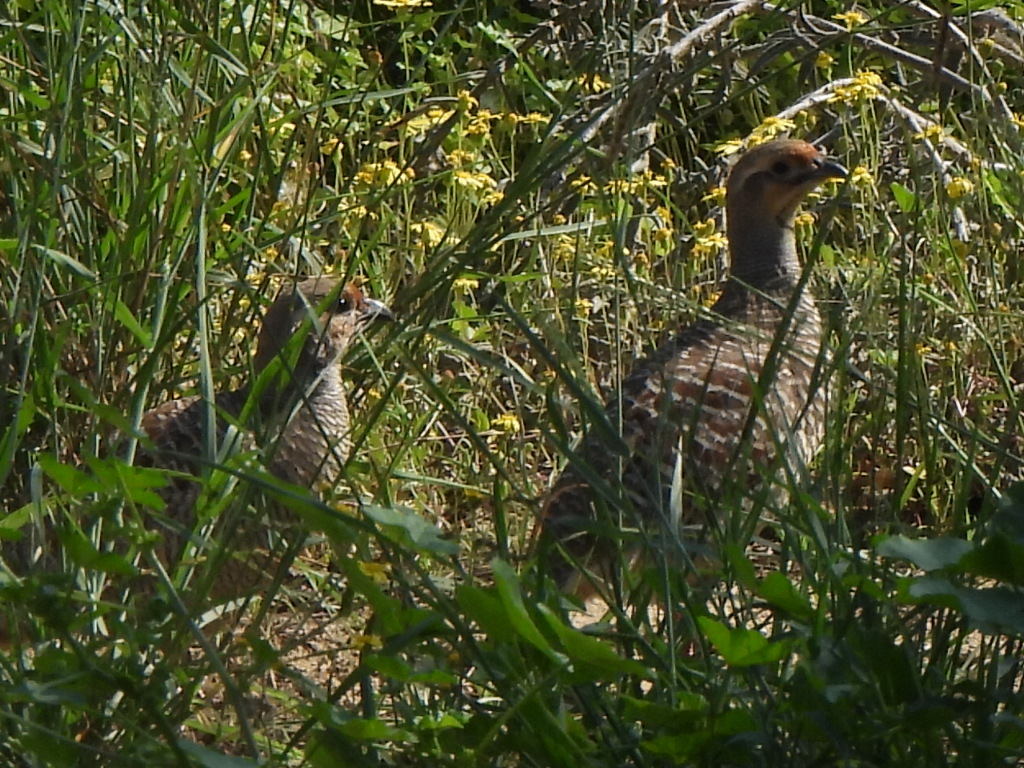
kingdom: Animalia
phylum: Chordata
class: Aves
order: Galliformes
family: Phasianidae
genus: Ortygornis
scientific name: Ortygornis pondicerianus
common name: Grey francolin
